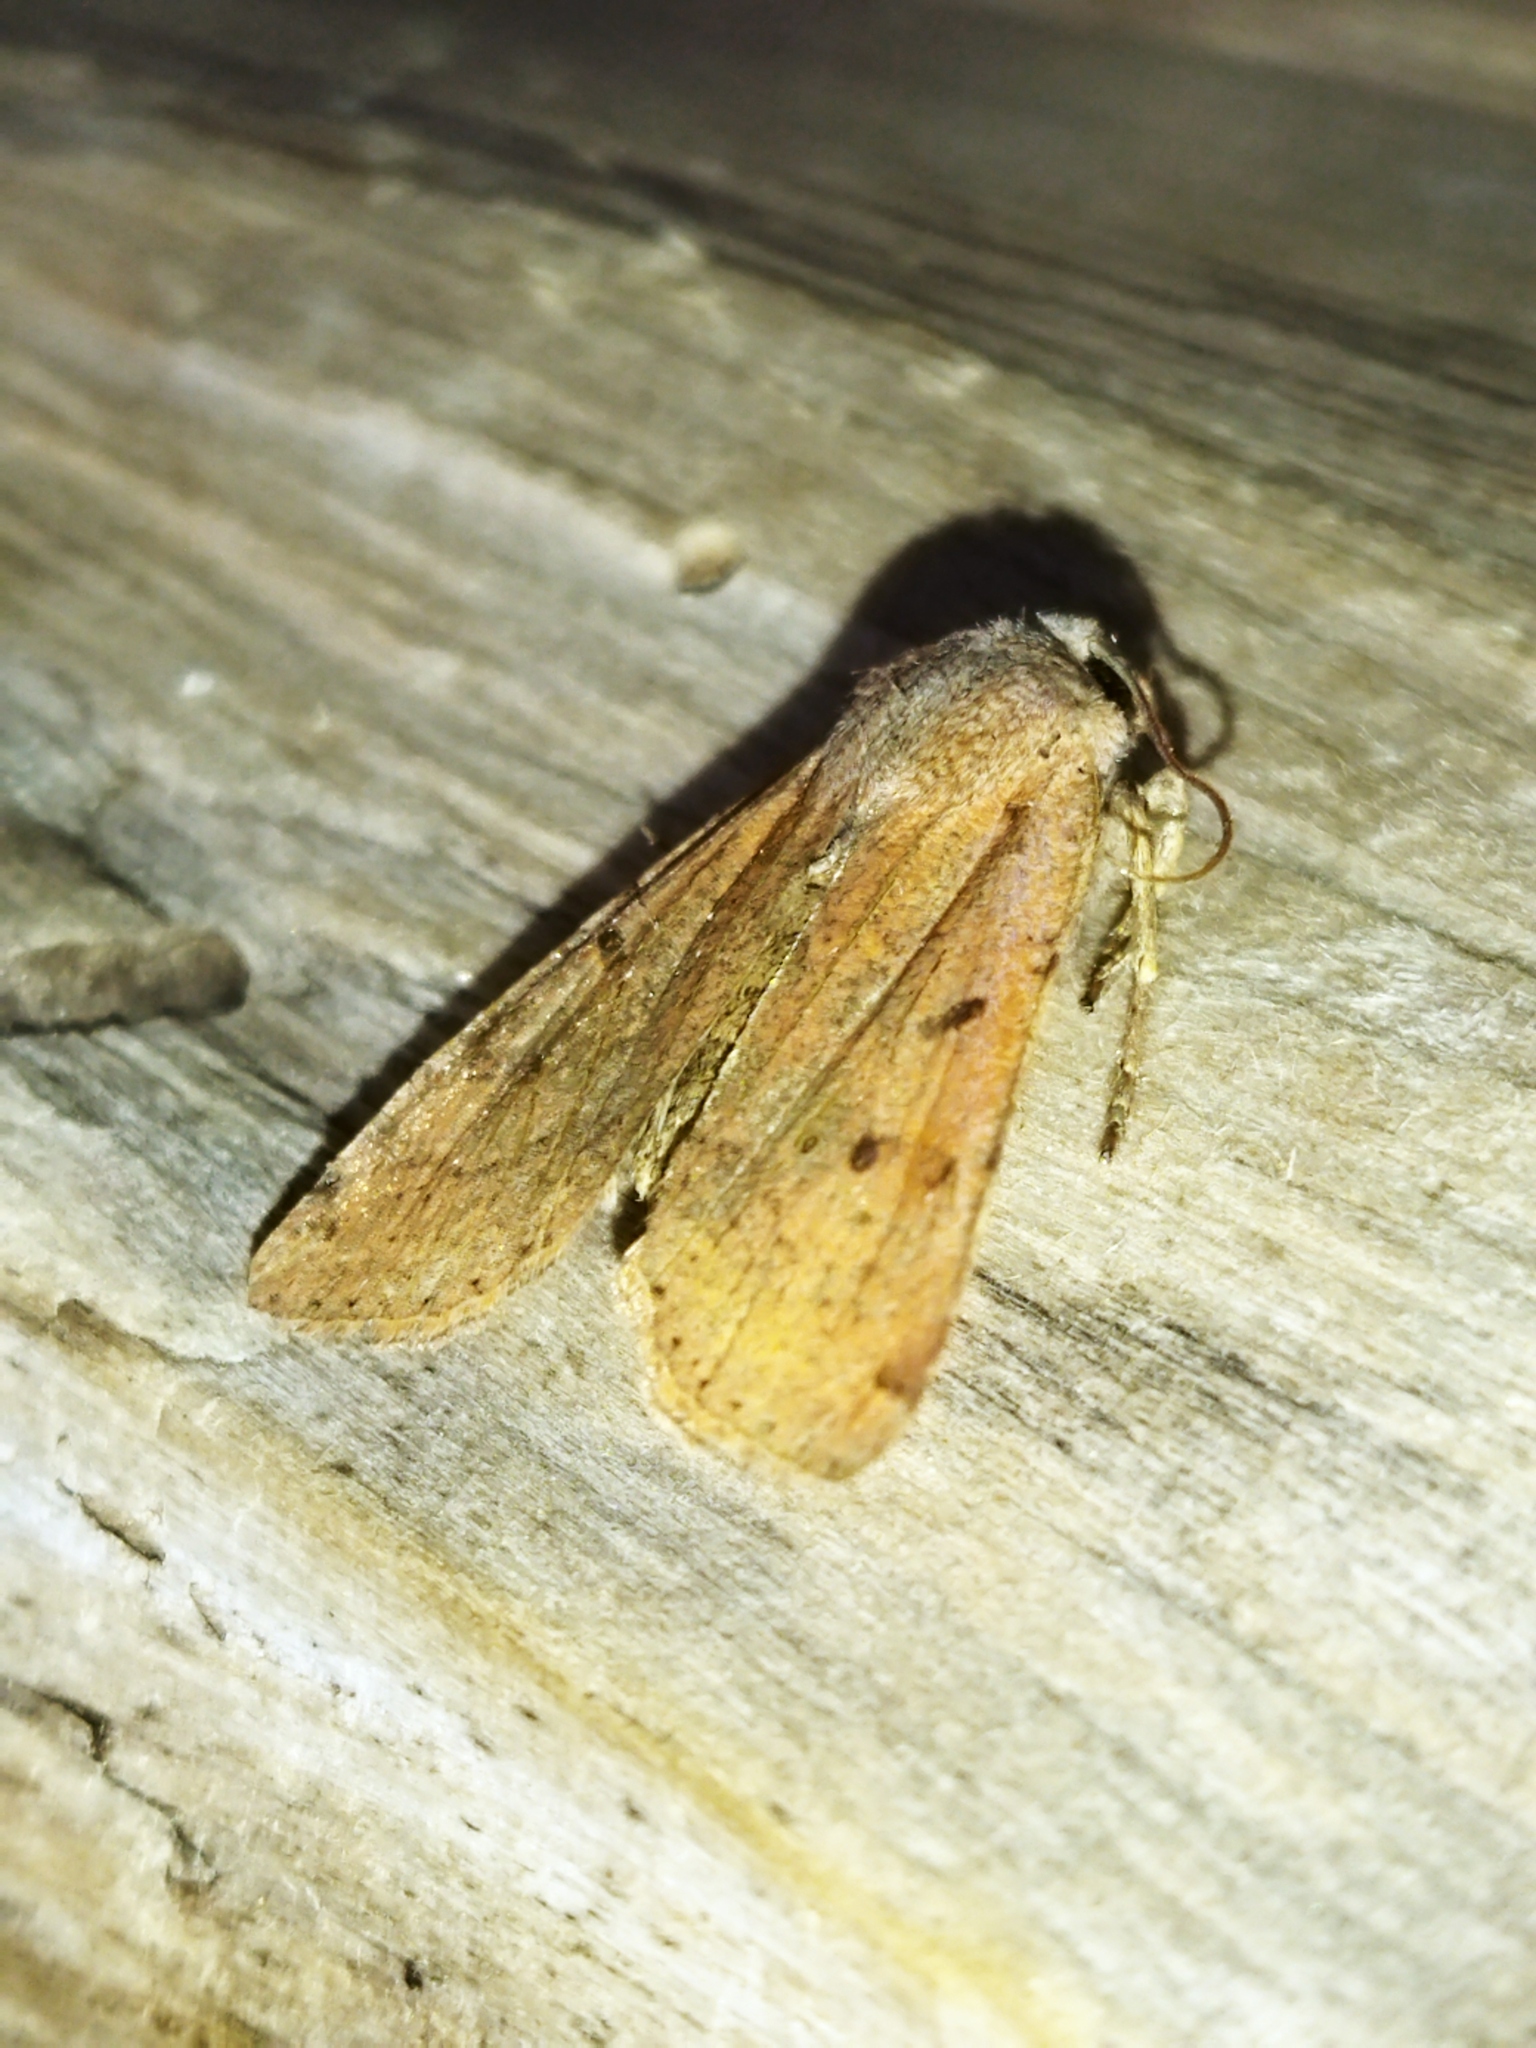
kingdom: Animalia
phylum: Arthropoda
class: Insecta
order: Lepidoptera
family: Noctuidae
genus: Agrochola
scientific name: Agrochola lychnidis
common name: Beaded chestnut
